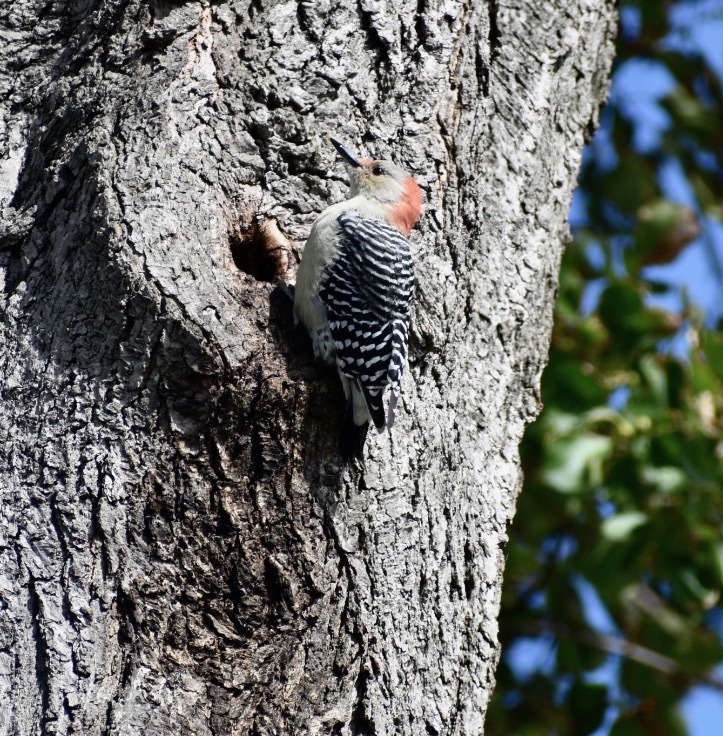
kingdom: Animalia
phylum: Chordata
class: Aves
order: Piciformes
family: Picidae
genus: Melanerpes
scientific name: Melanerpes carolinus
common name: Red-bellied woodpecker
